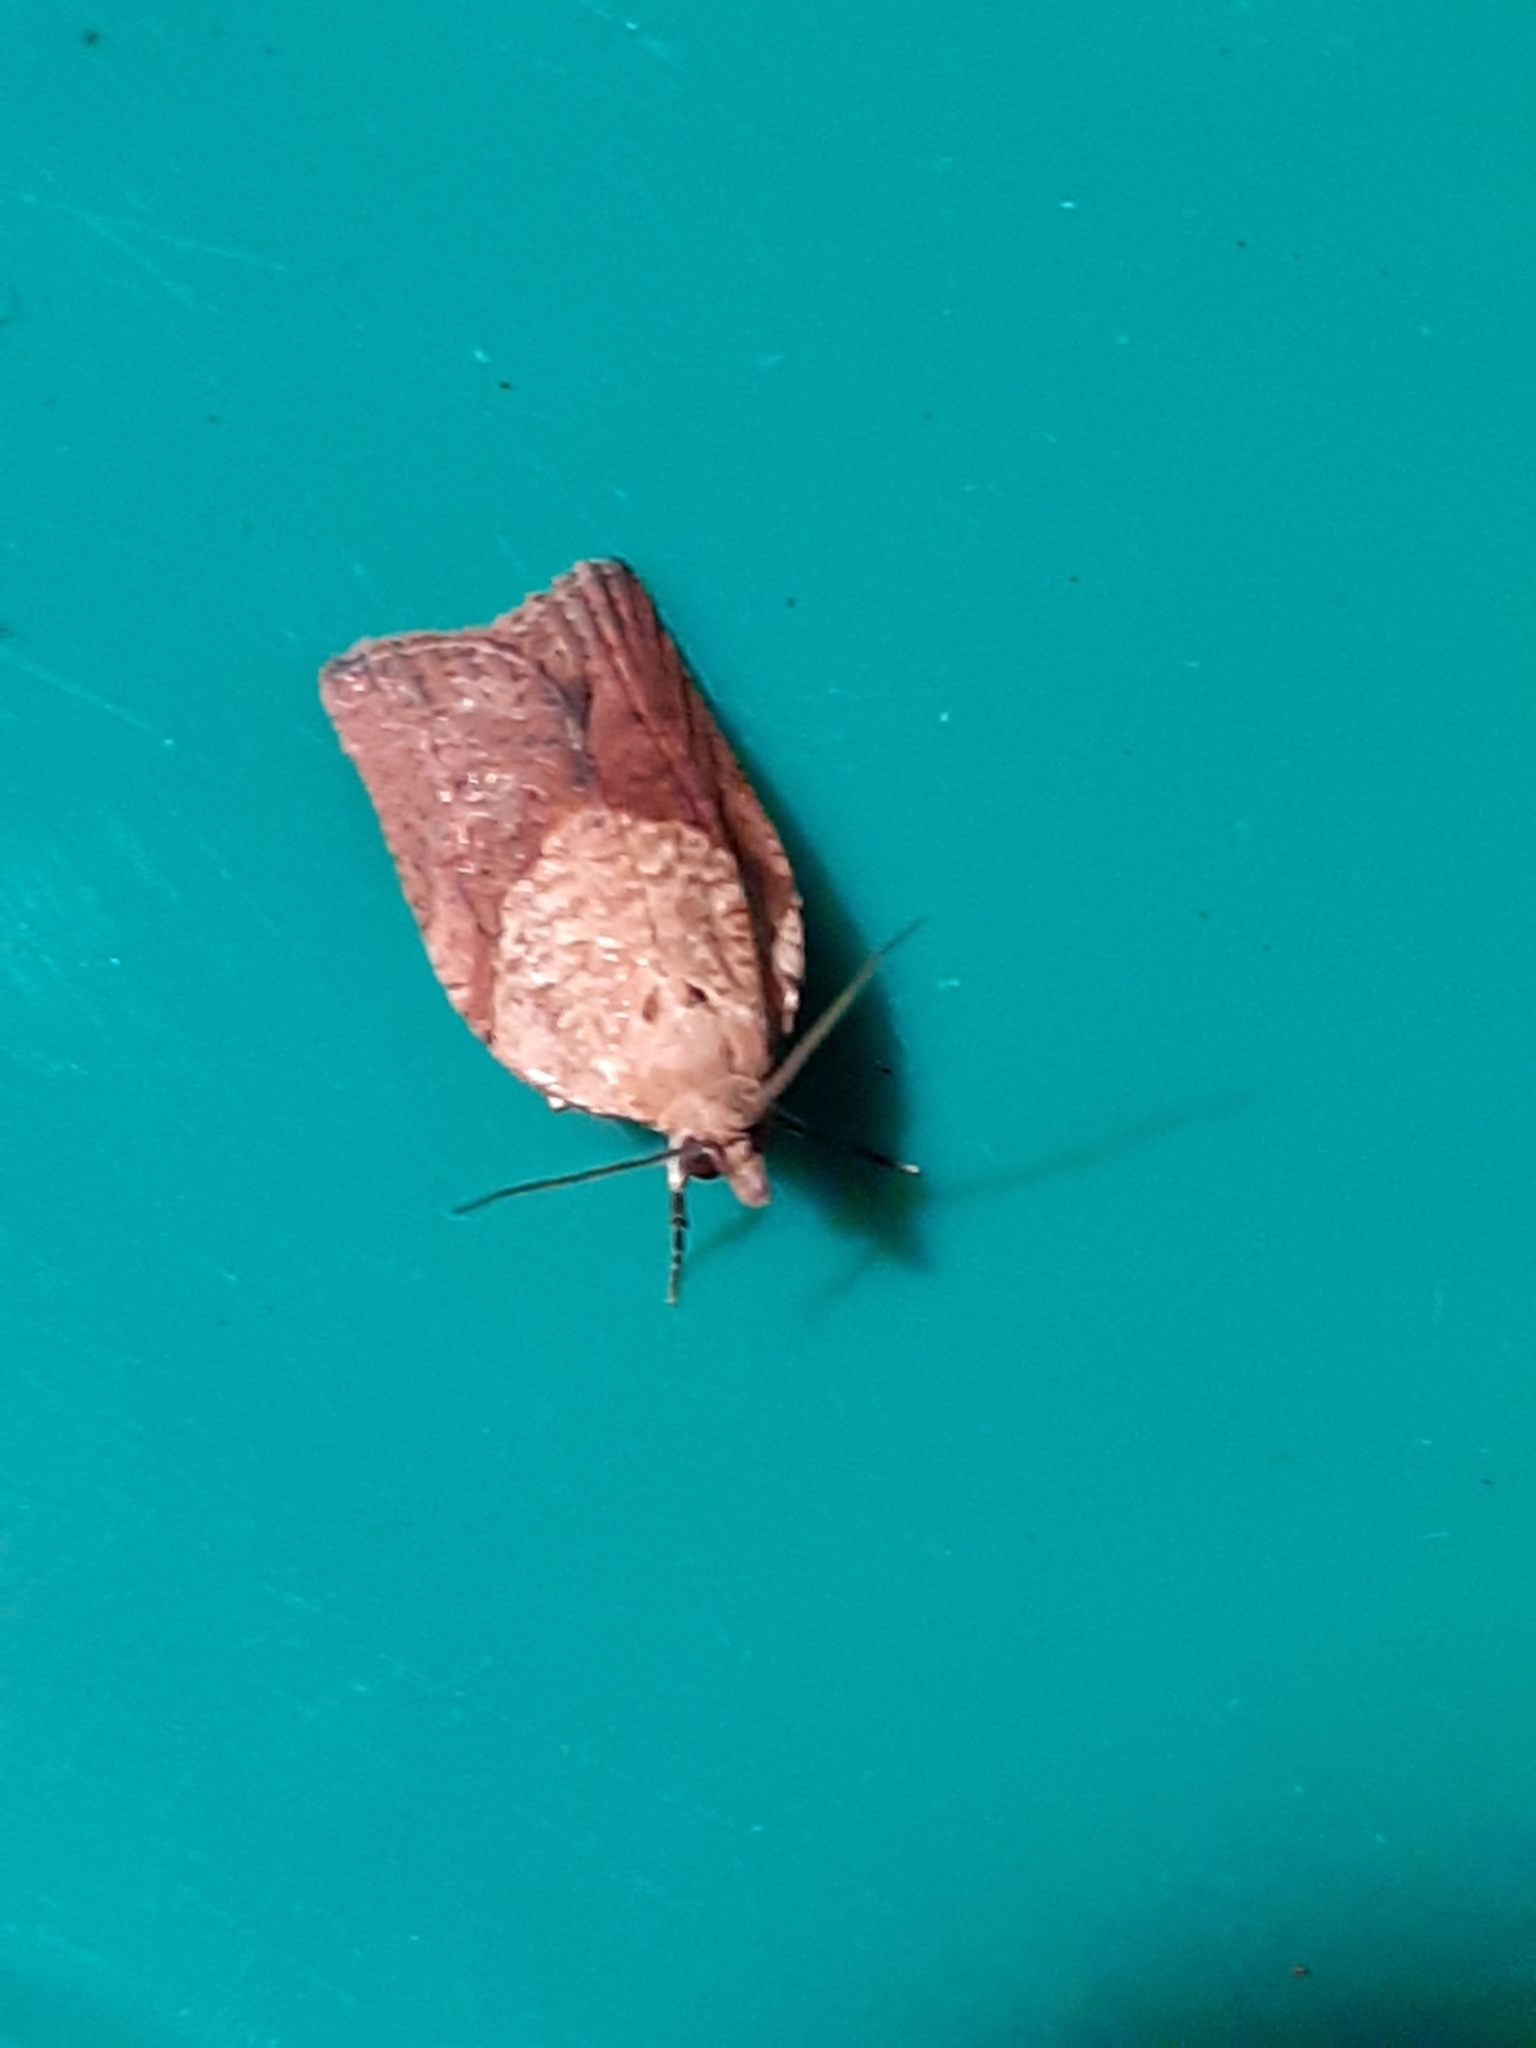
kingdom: Animalia
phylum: Arthropoda
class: Insecta
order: Lepidoptera
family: Tortricidae
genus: Epiphyas
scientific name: Epiphyas postvittana
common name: Light brown apple moth
